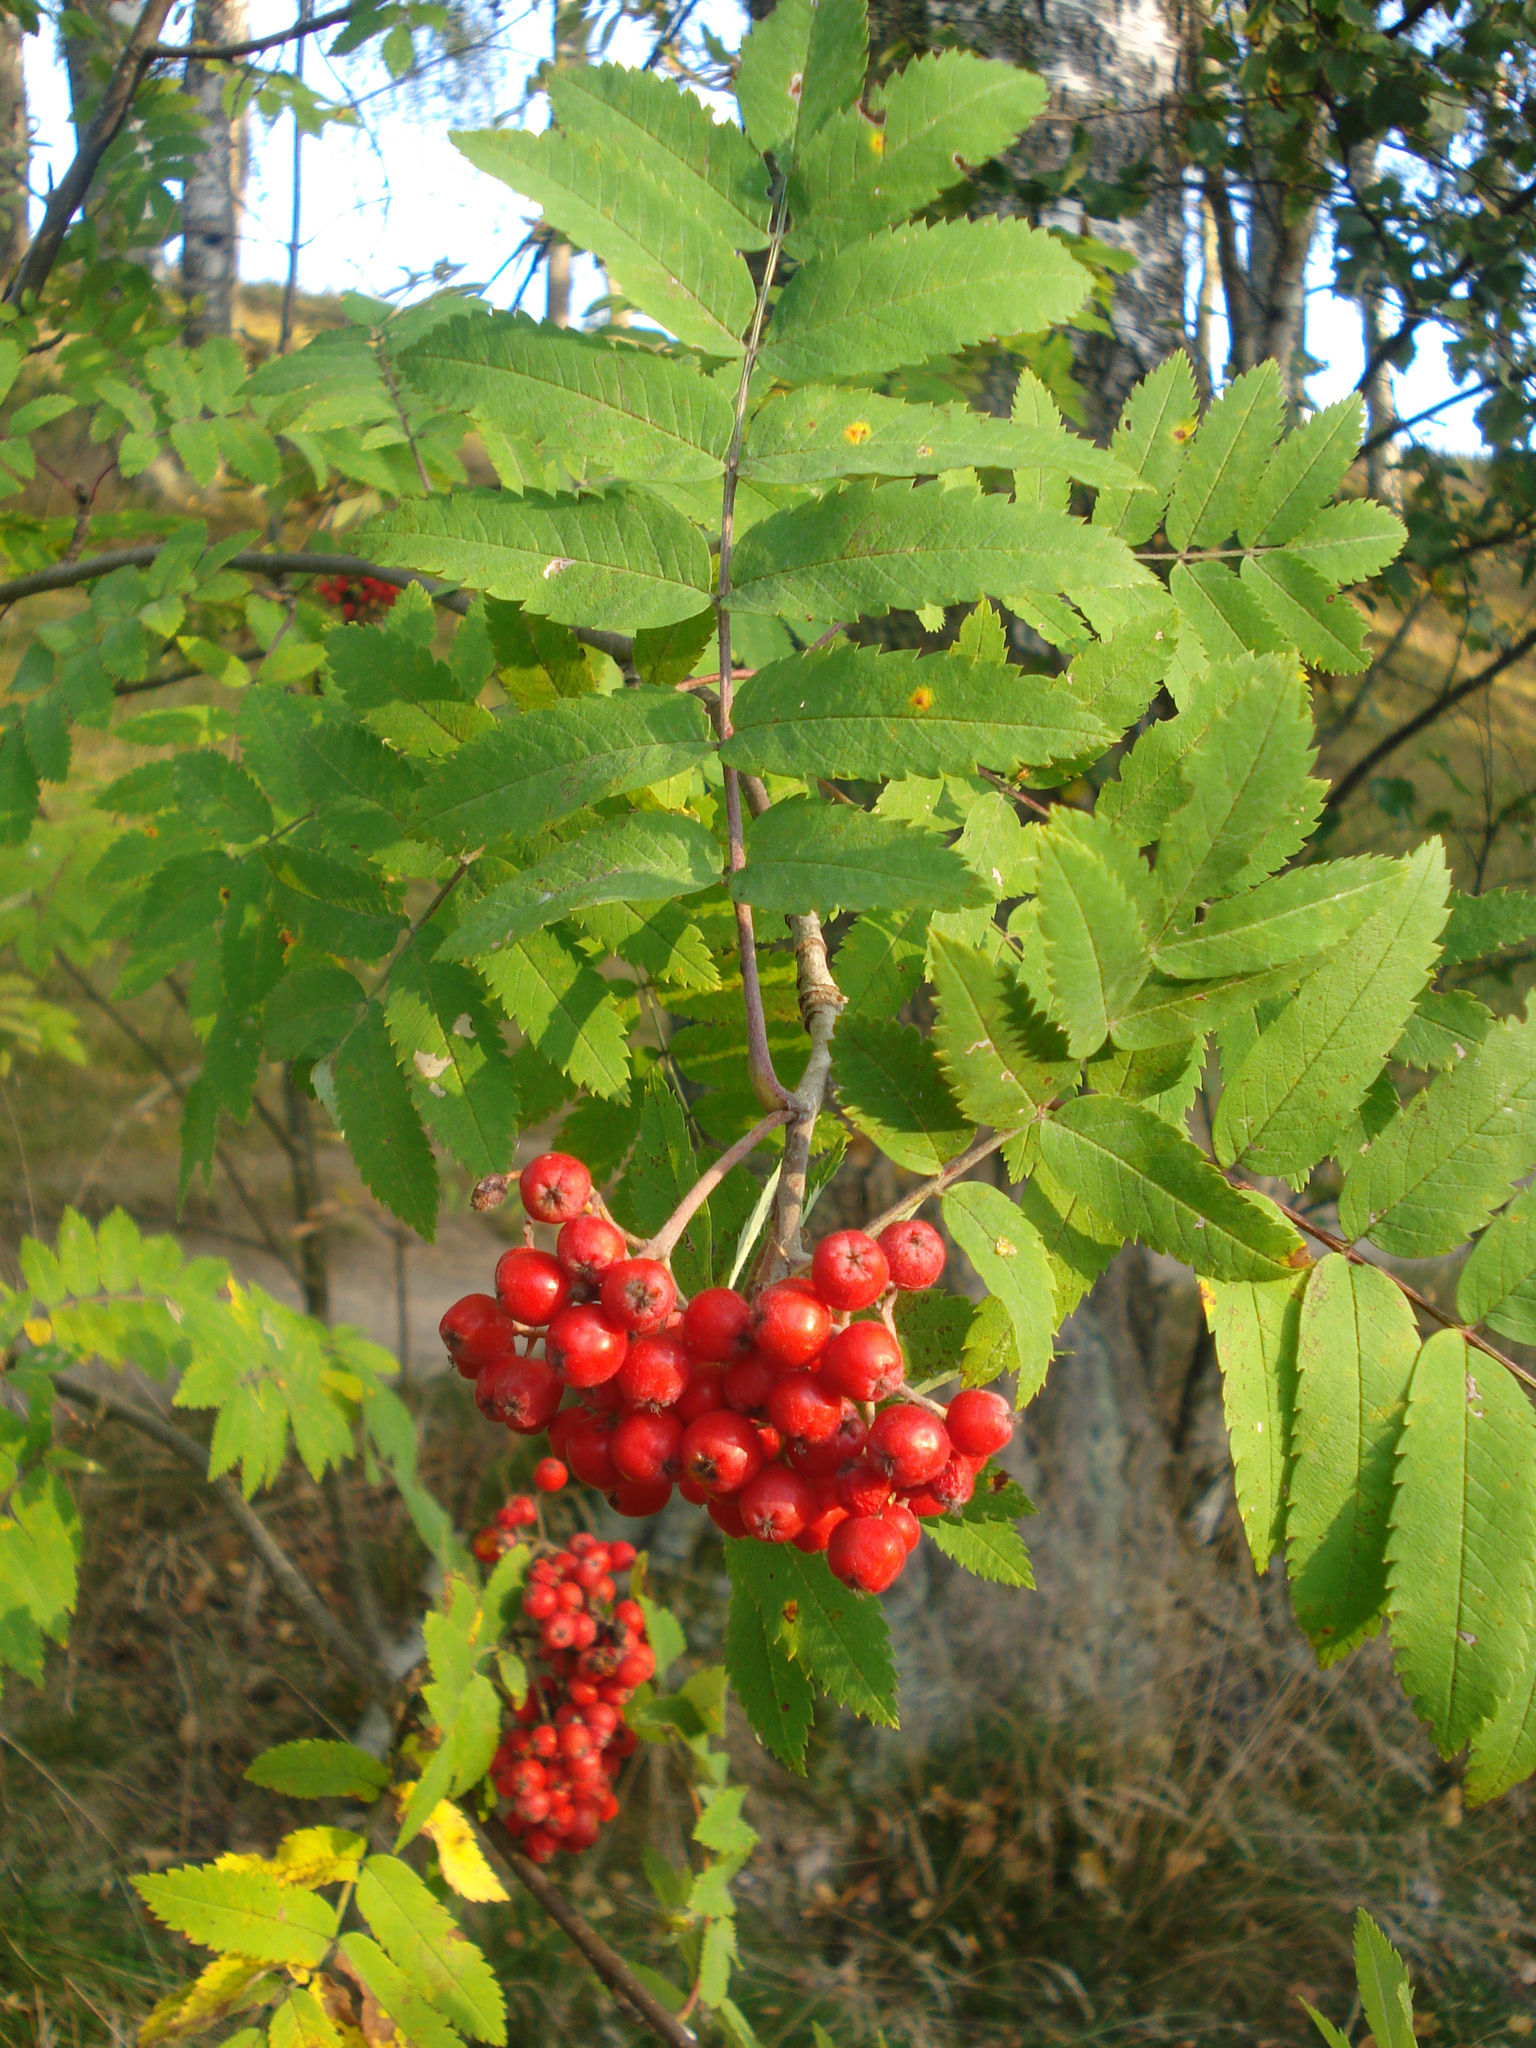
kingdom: Plantae
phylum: Tracheophyta
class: Magnoliopsida
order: Rosales
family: Rosaceae
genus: Sorbus
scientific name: Sorbus aucuparia
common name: Rowan
